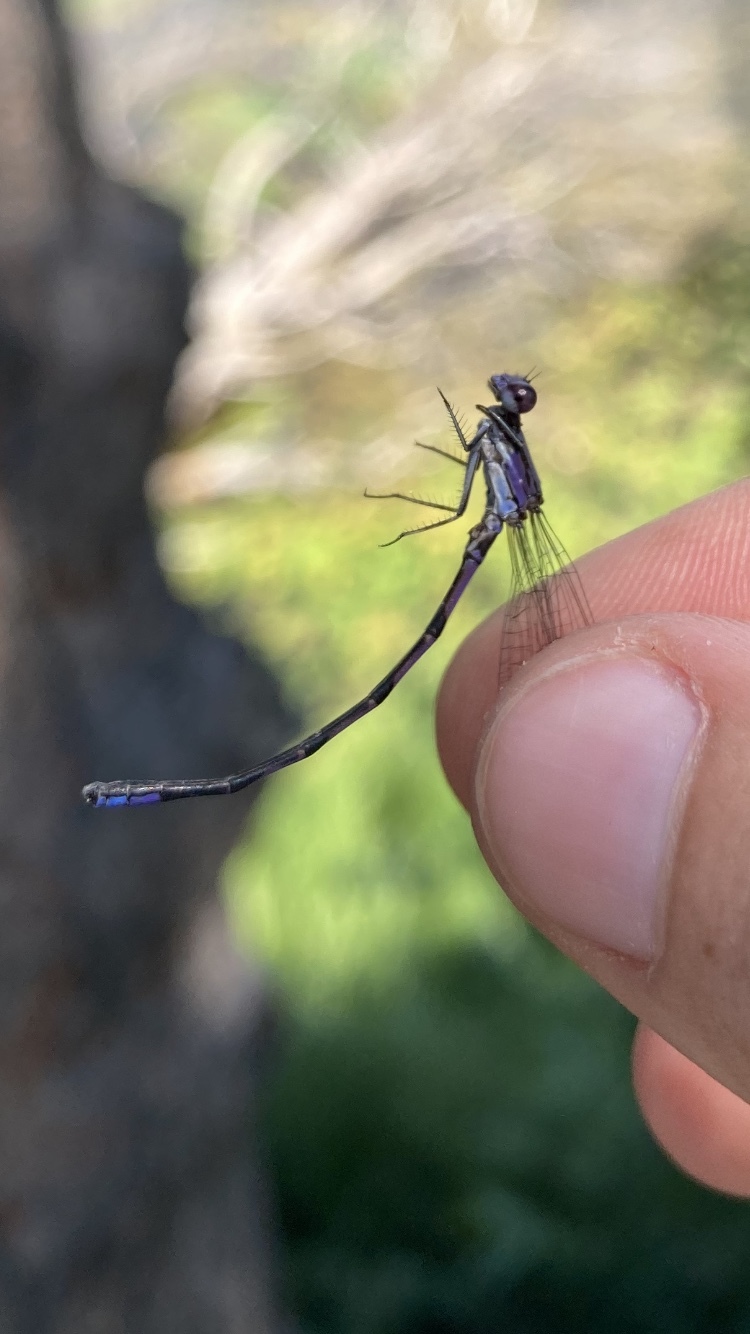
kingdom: Animalia
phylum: Arthropoda
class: Insecta
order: Odonata
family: Coenagrionidae
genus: Argia
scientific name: Argia fumipennis
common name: Variable dancer
